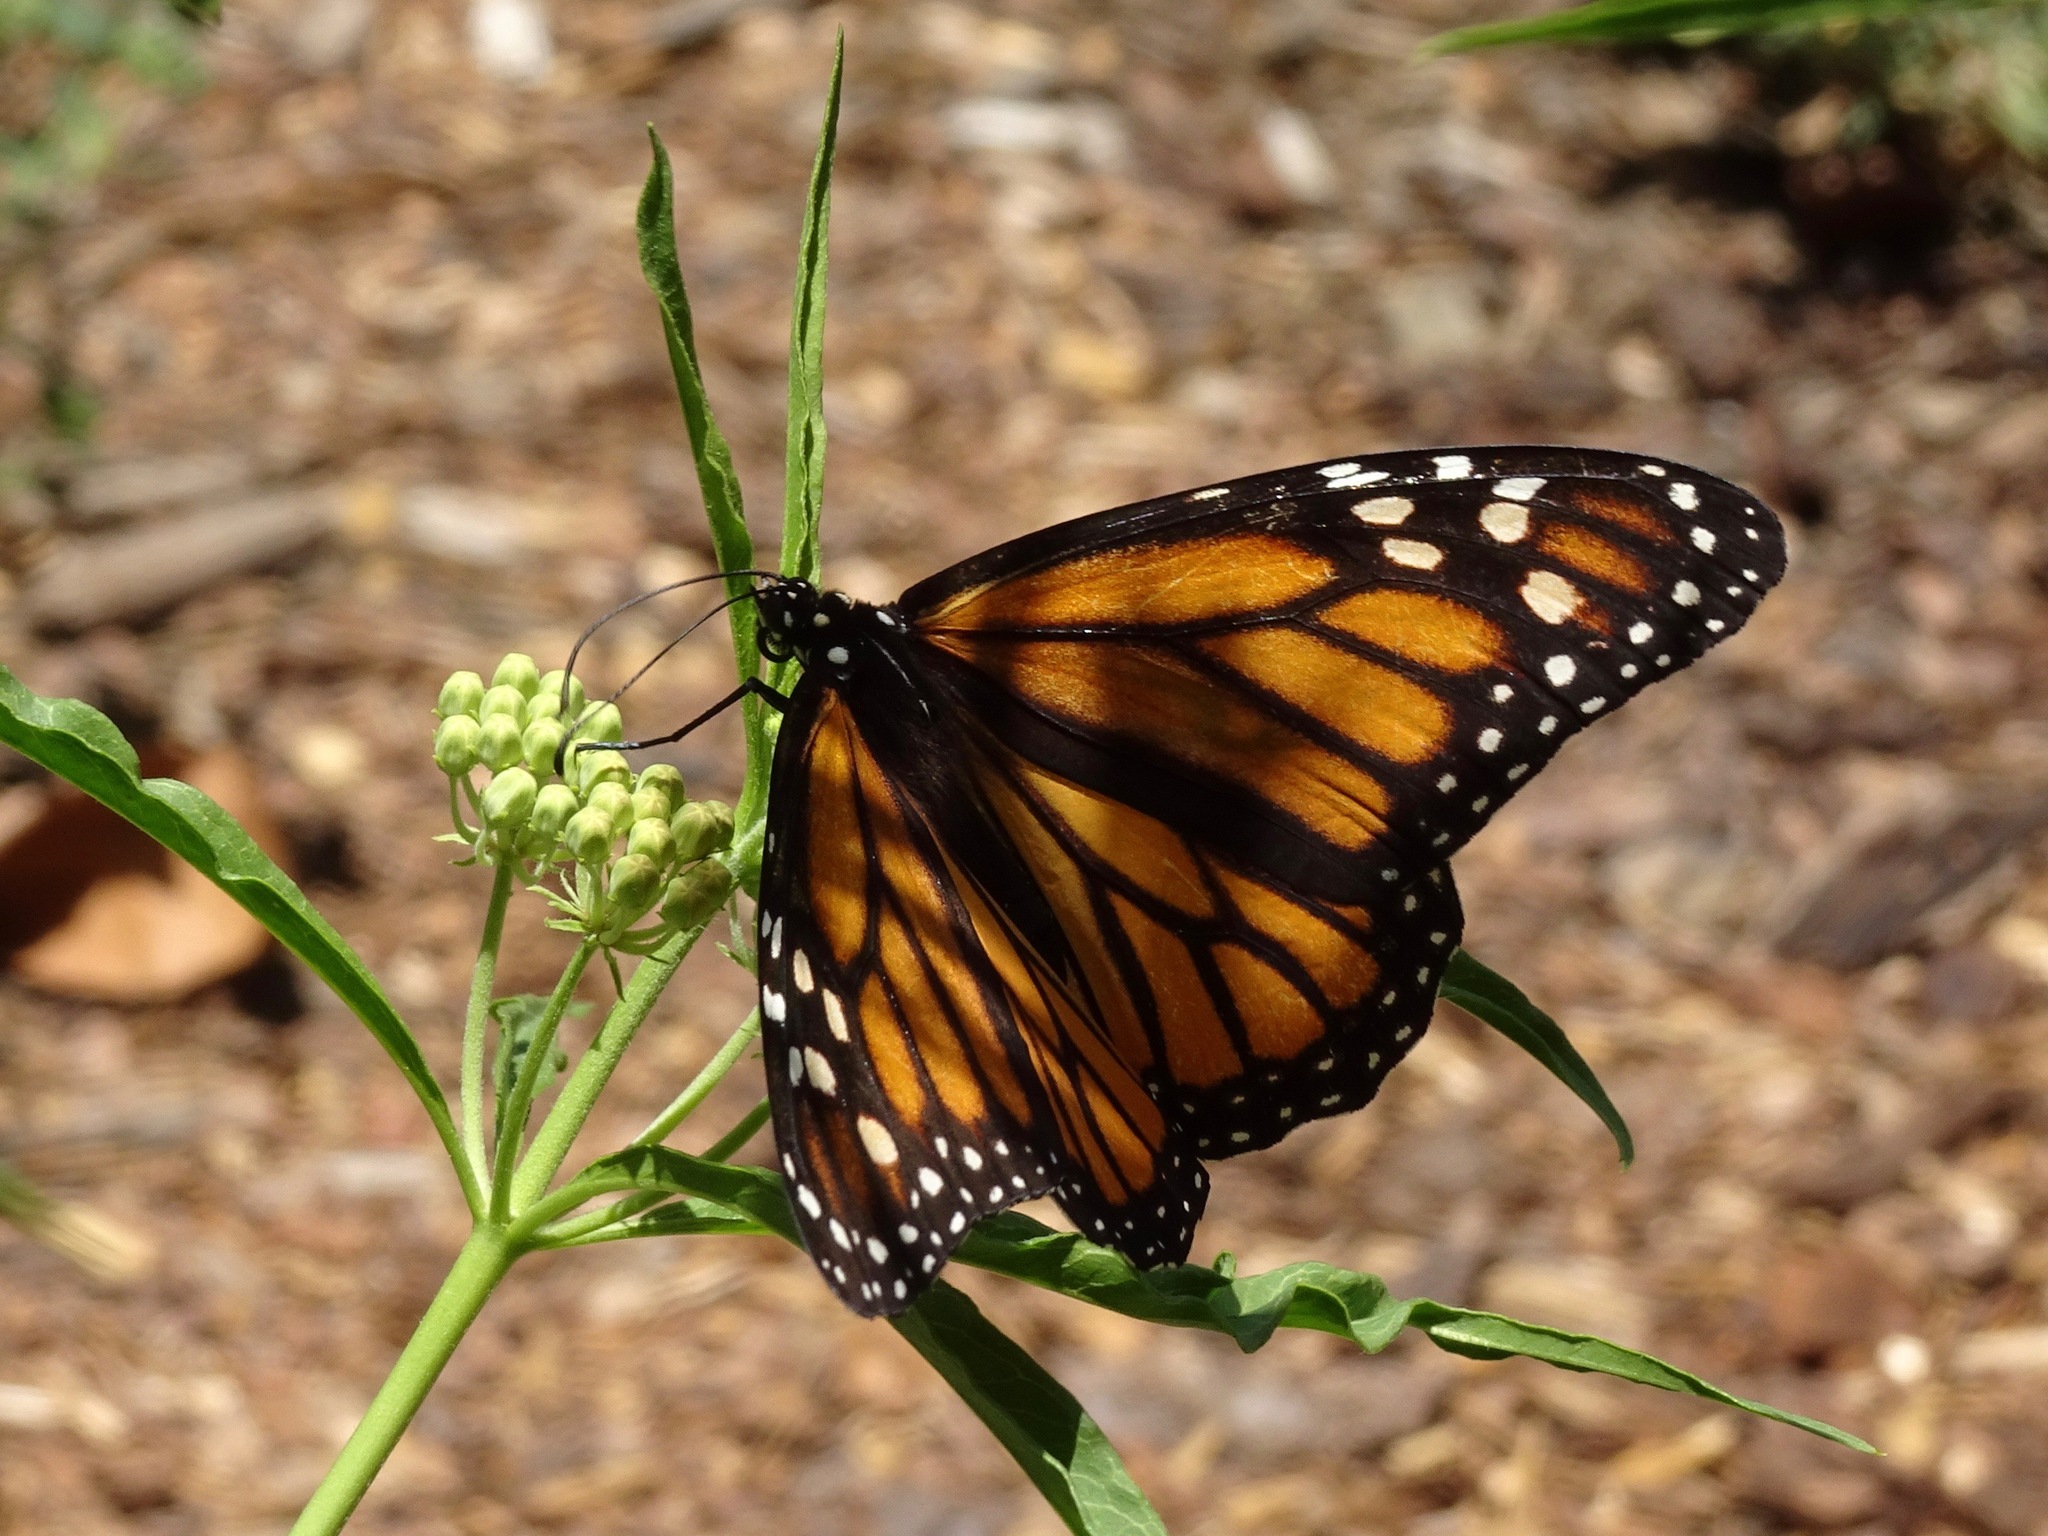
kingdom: Animalia
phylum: Arthropoda
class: Insecta
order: Lepidoptera
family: Nymphalidae
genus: Danaus
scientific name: Danaus plexippus
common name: Monarch
